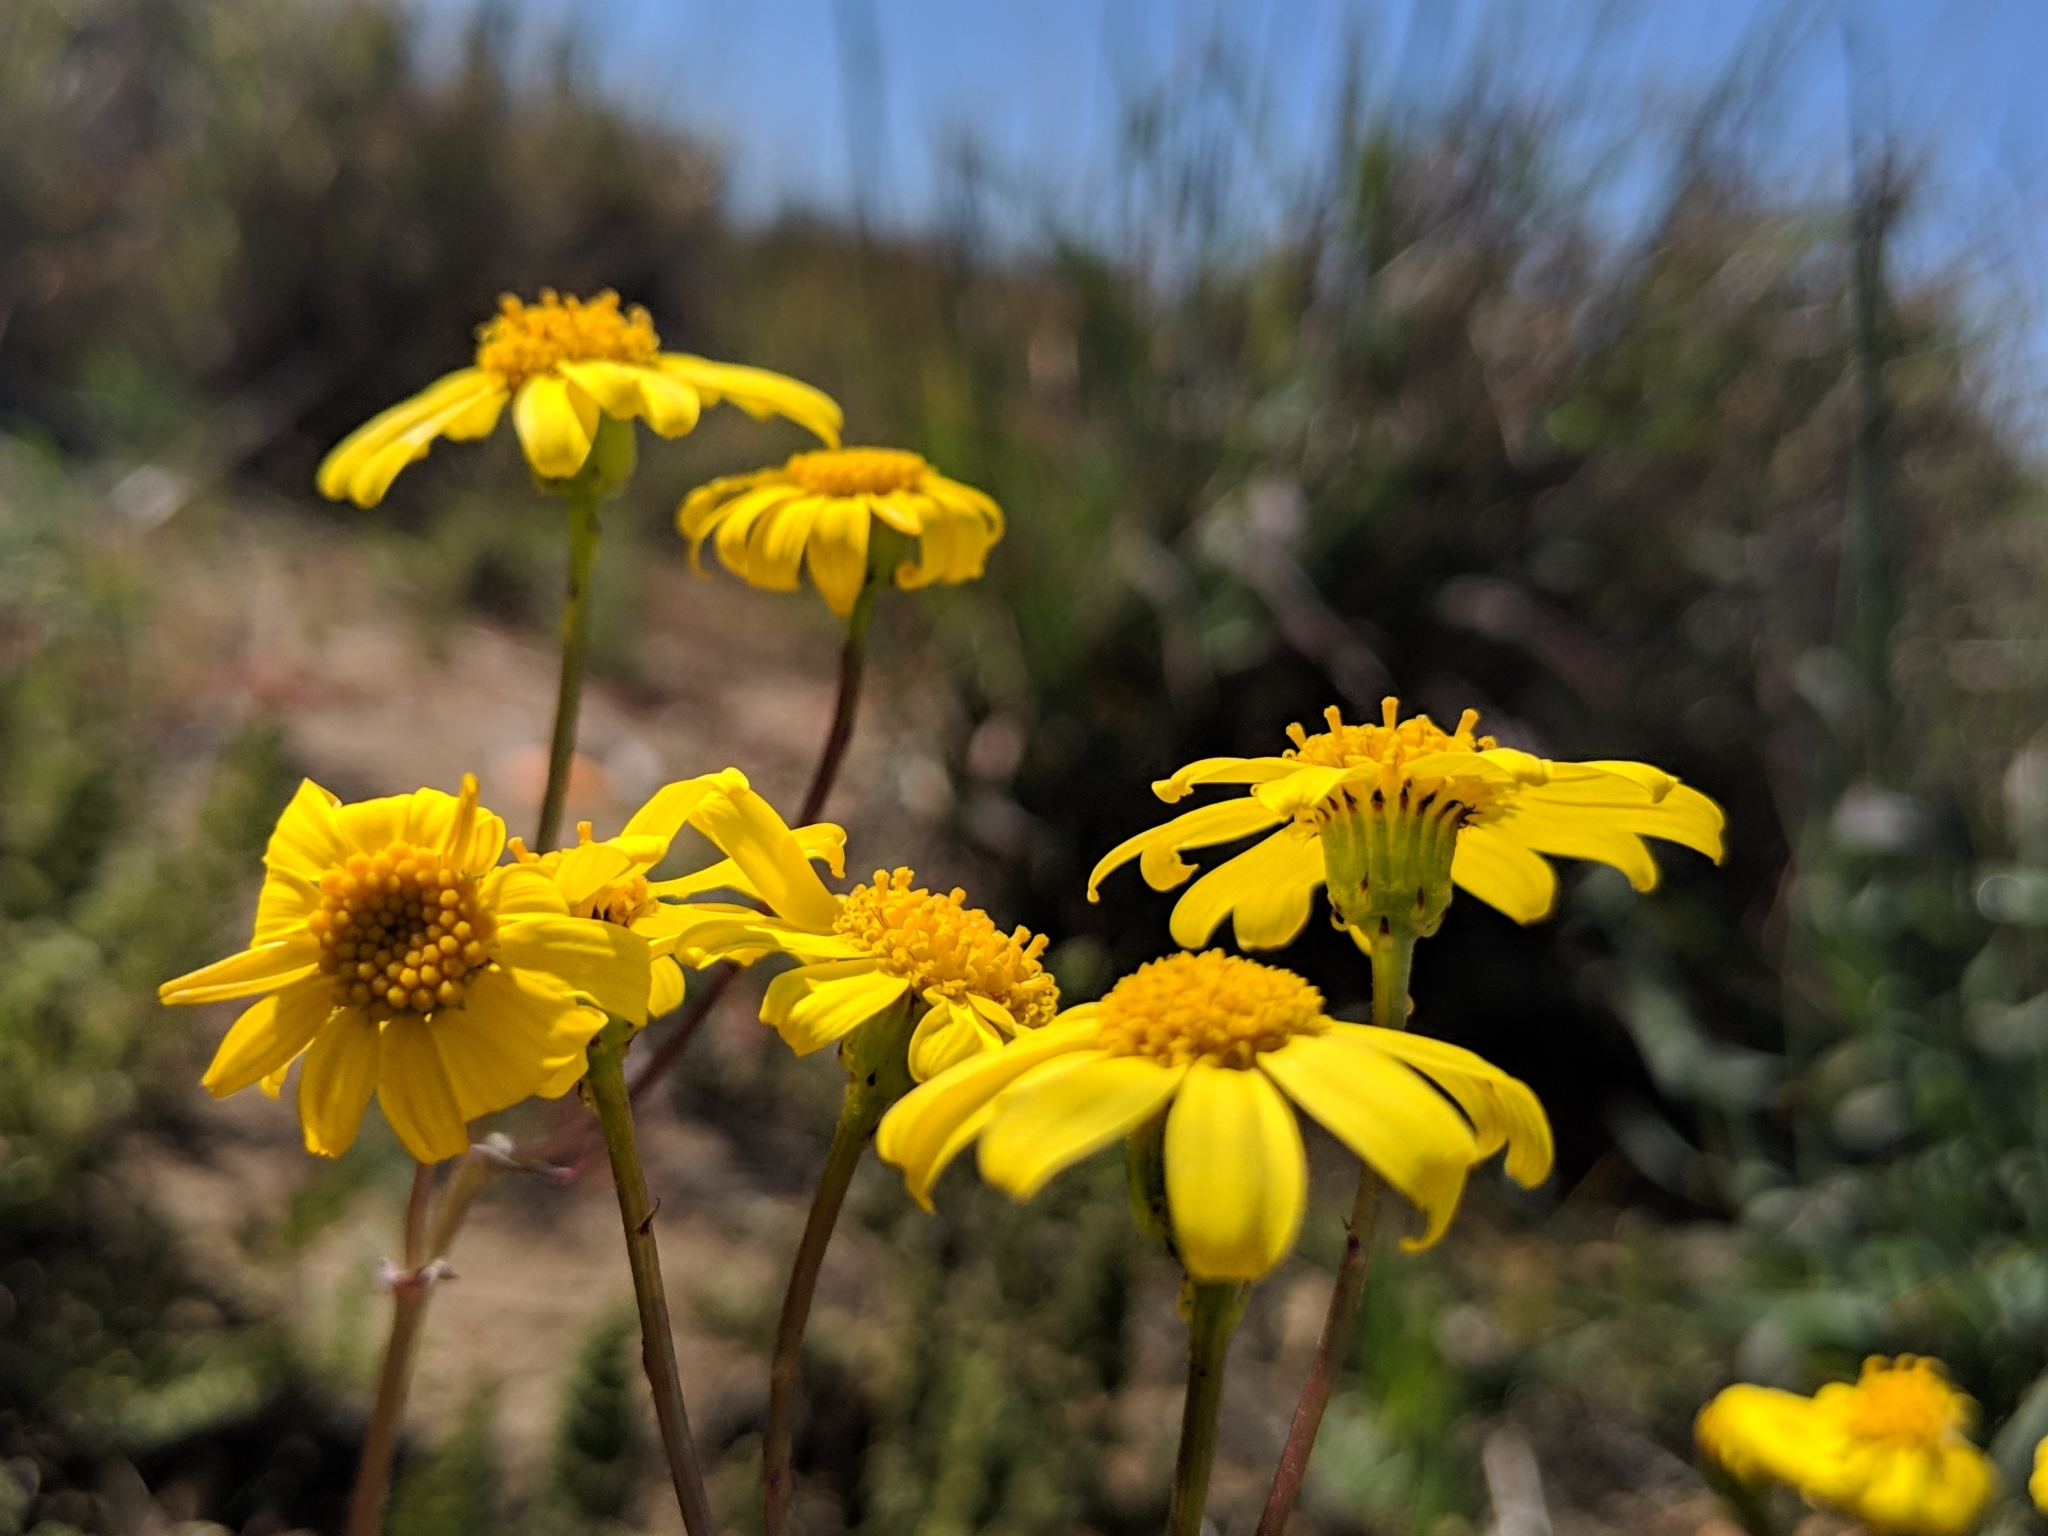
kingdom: Plantae
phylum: Tracheophyta
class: Magnoliopsida
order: Asterales
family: Asteraceae
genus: Senecio
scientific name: Senecio californicus
